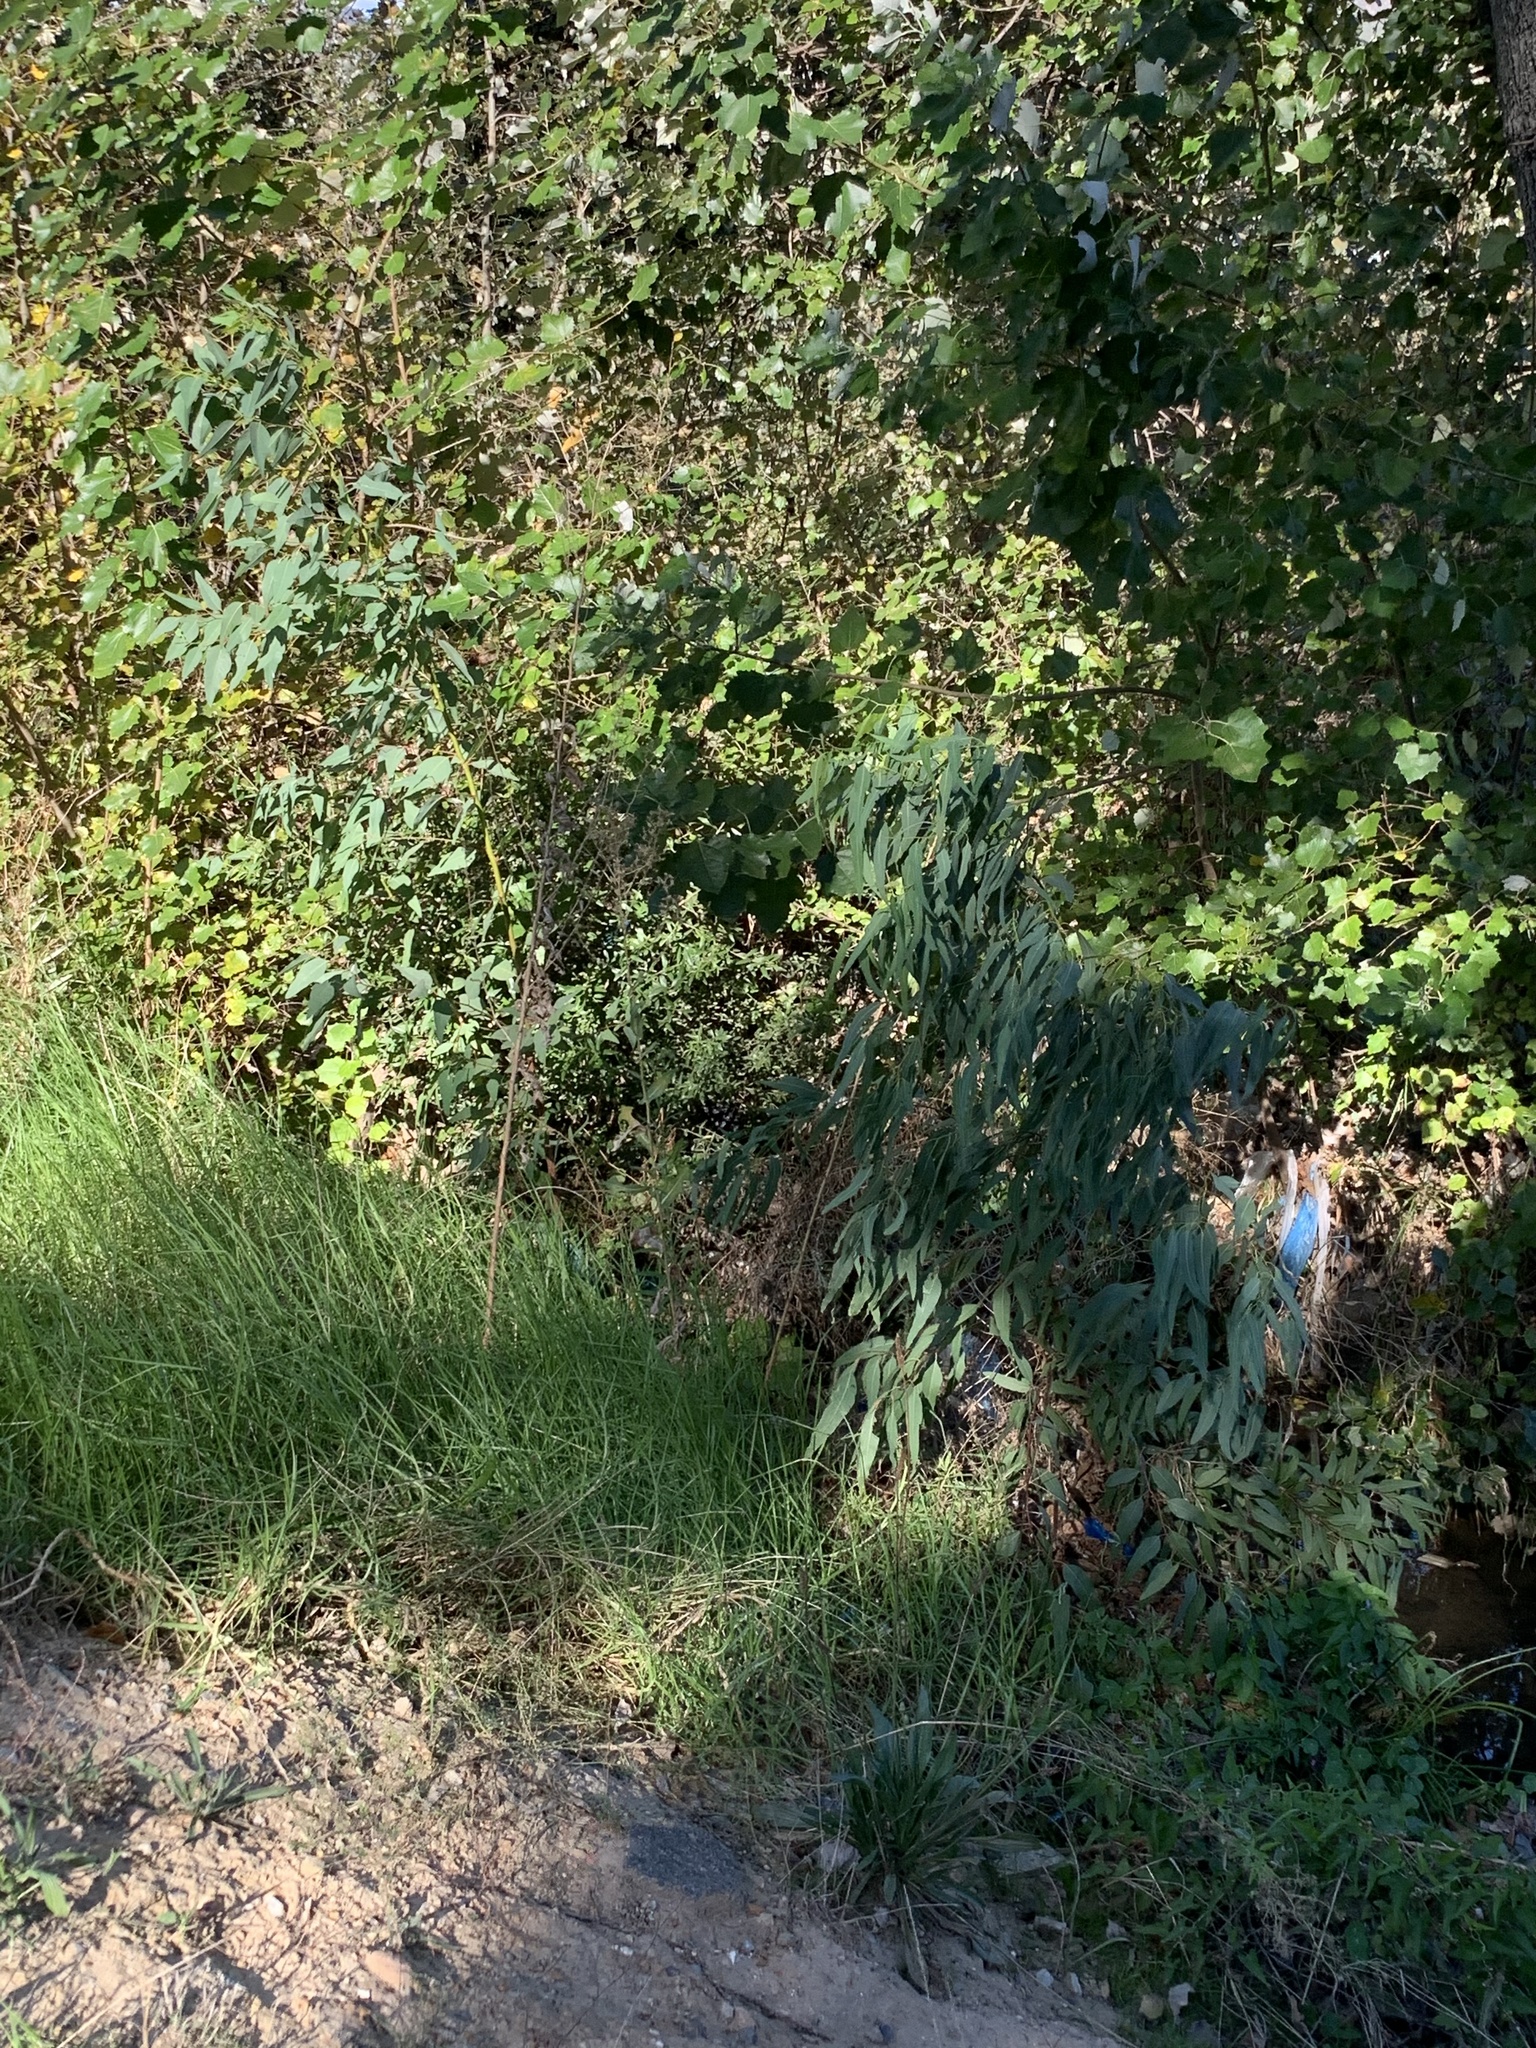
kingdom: Plantae
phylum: Tracheophyta
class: Magnoliopsida
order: Myrtales
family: Myrtaceae
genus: Eucalyptus
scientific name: Eucalyptus camaldulensis
